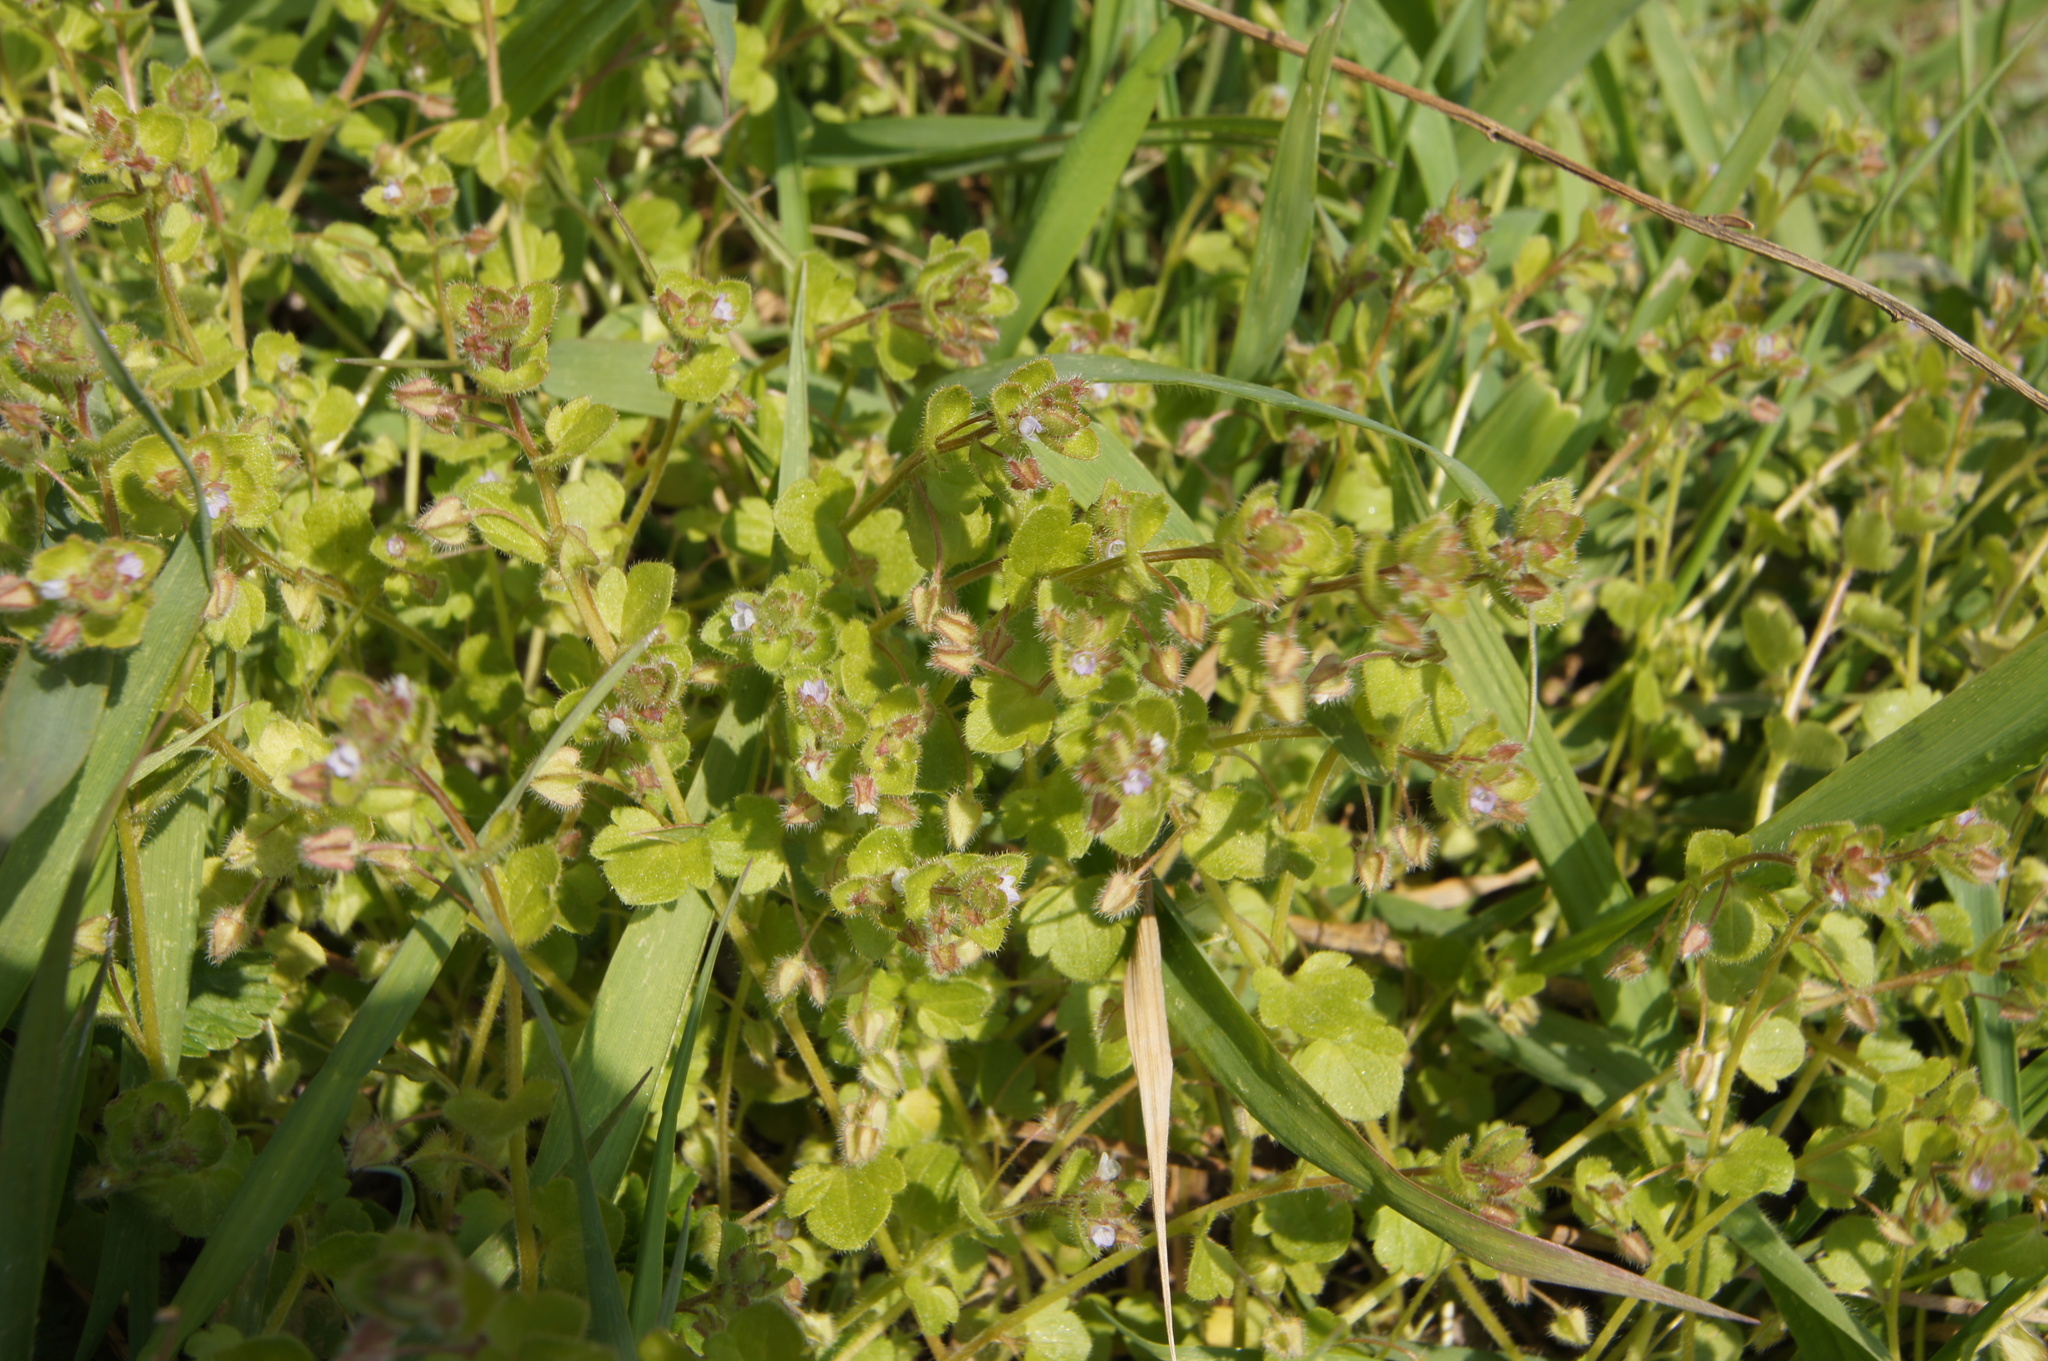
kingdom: Plantae
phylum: Tracheophyta
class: Magnoliopsida
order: Lamiales
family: Plantaginaceae
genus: Veronica
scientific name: Veronica sublobata
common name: False ivy-leaved speedwell
